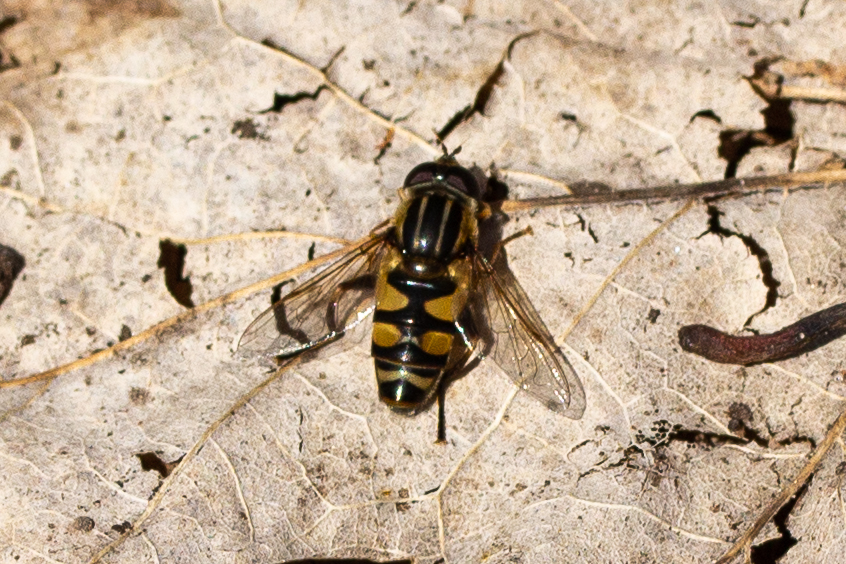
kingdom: Animalia
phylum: Arthropoda
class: Insecta
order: Diptera
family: Syrphidae
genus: Helophilus
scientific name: Helophilus fasciatus
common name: Narrow-headed marsh fly
